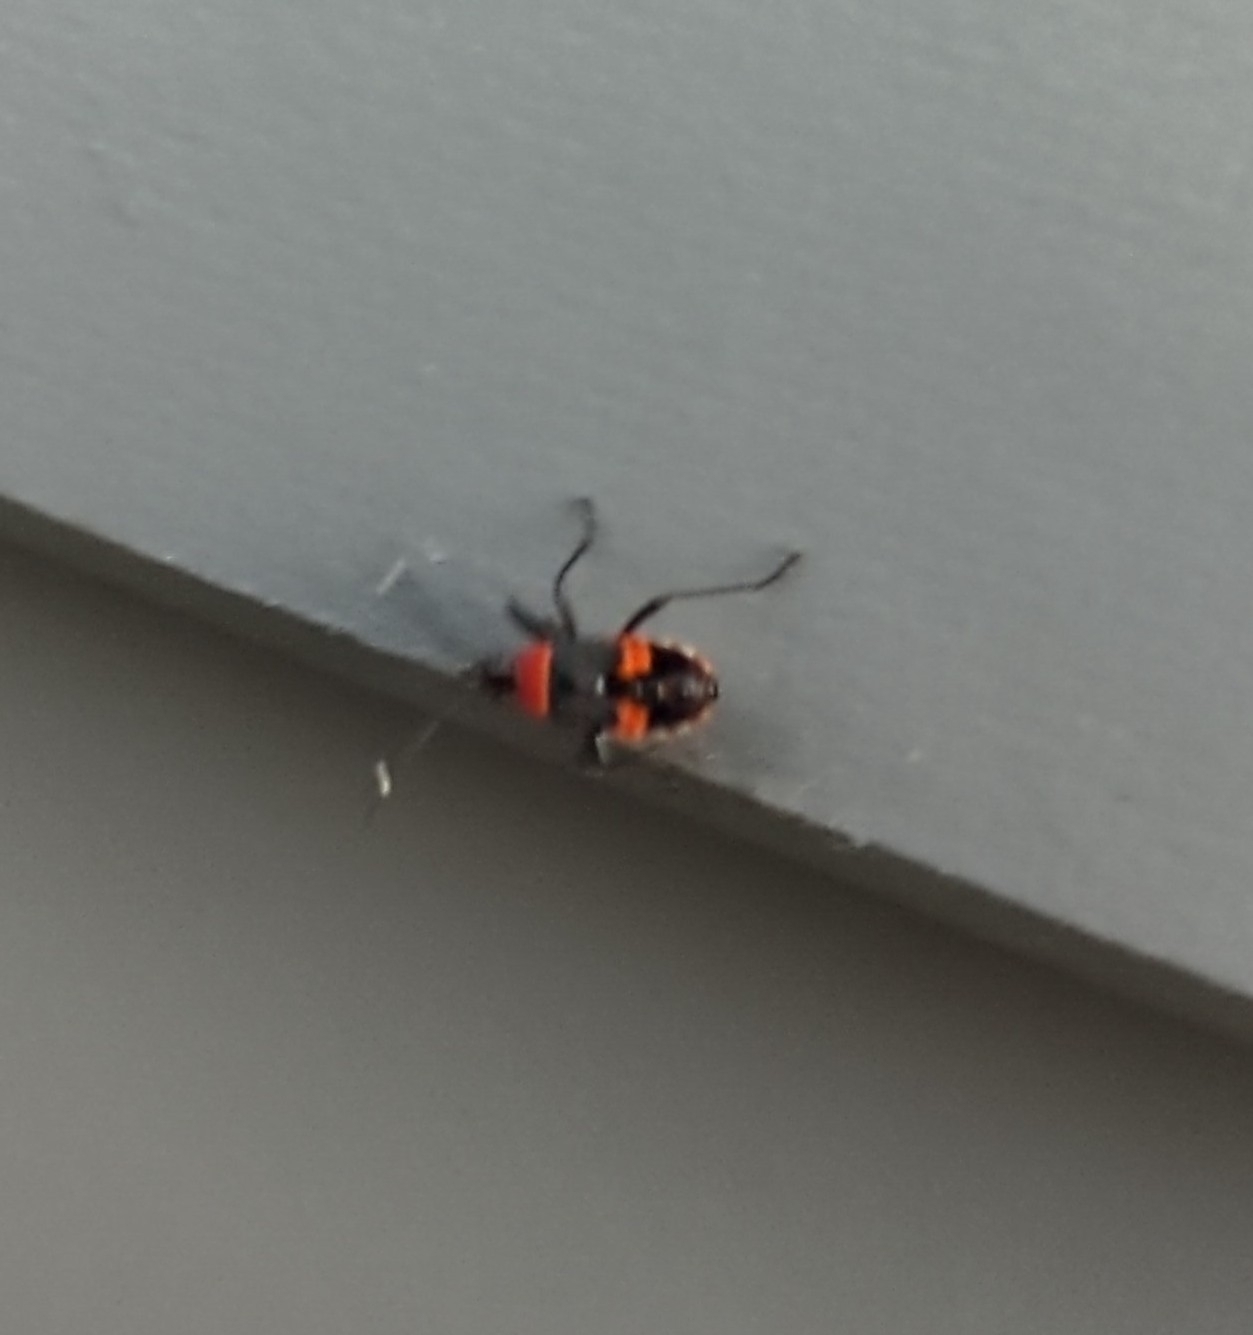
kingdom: Animalia
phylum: Arthropoda
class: Insecta
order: Hemiptera
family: Pyrrhocoridae
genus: Dindymus
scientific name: Dindymus
